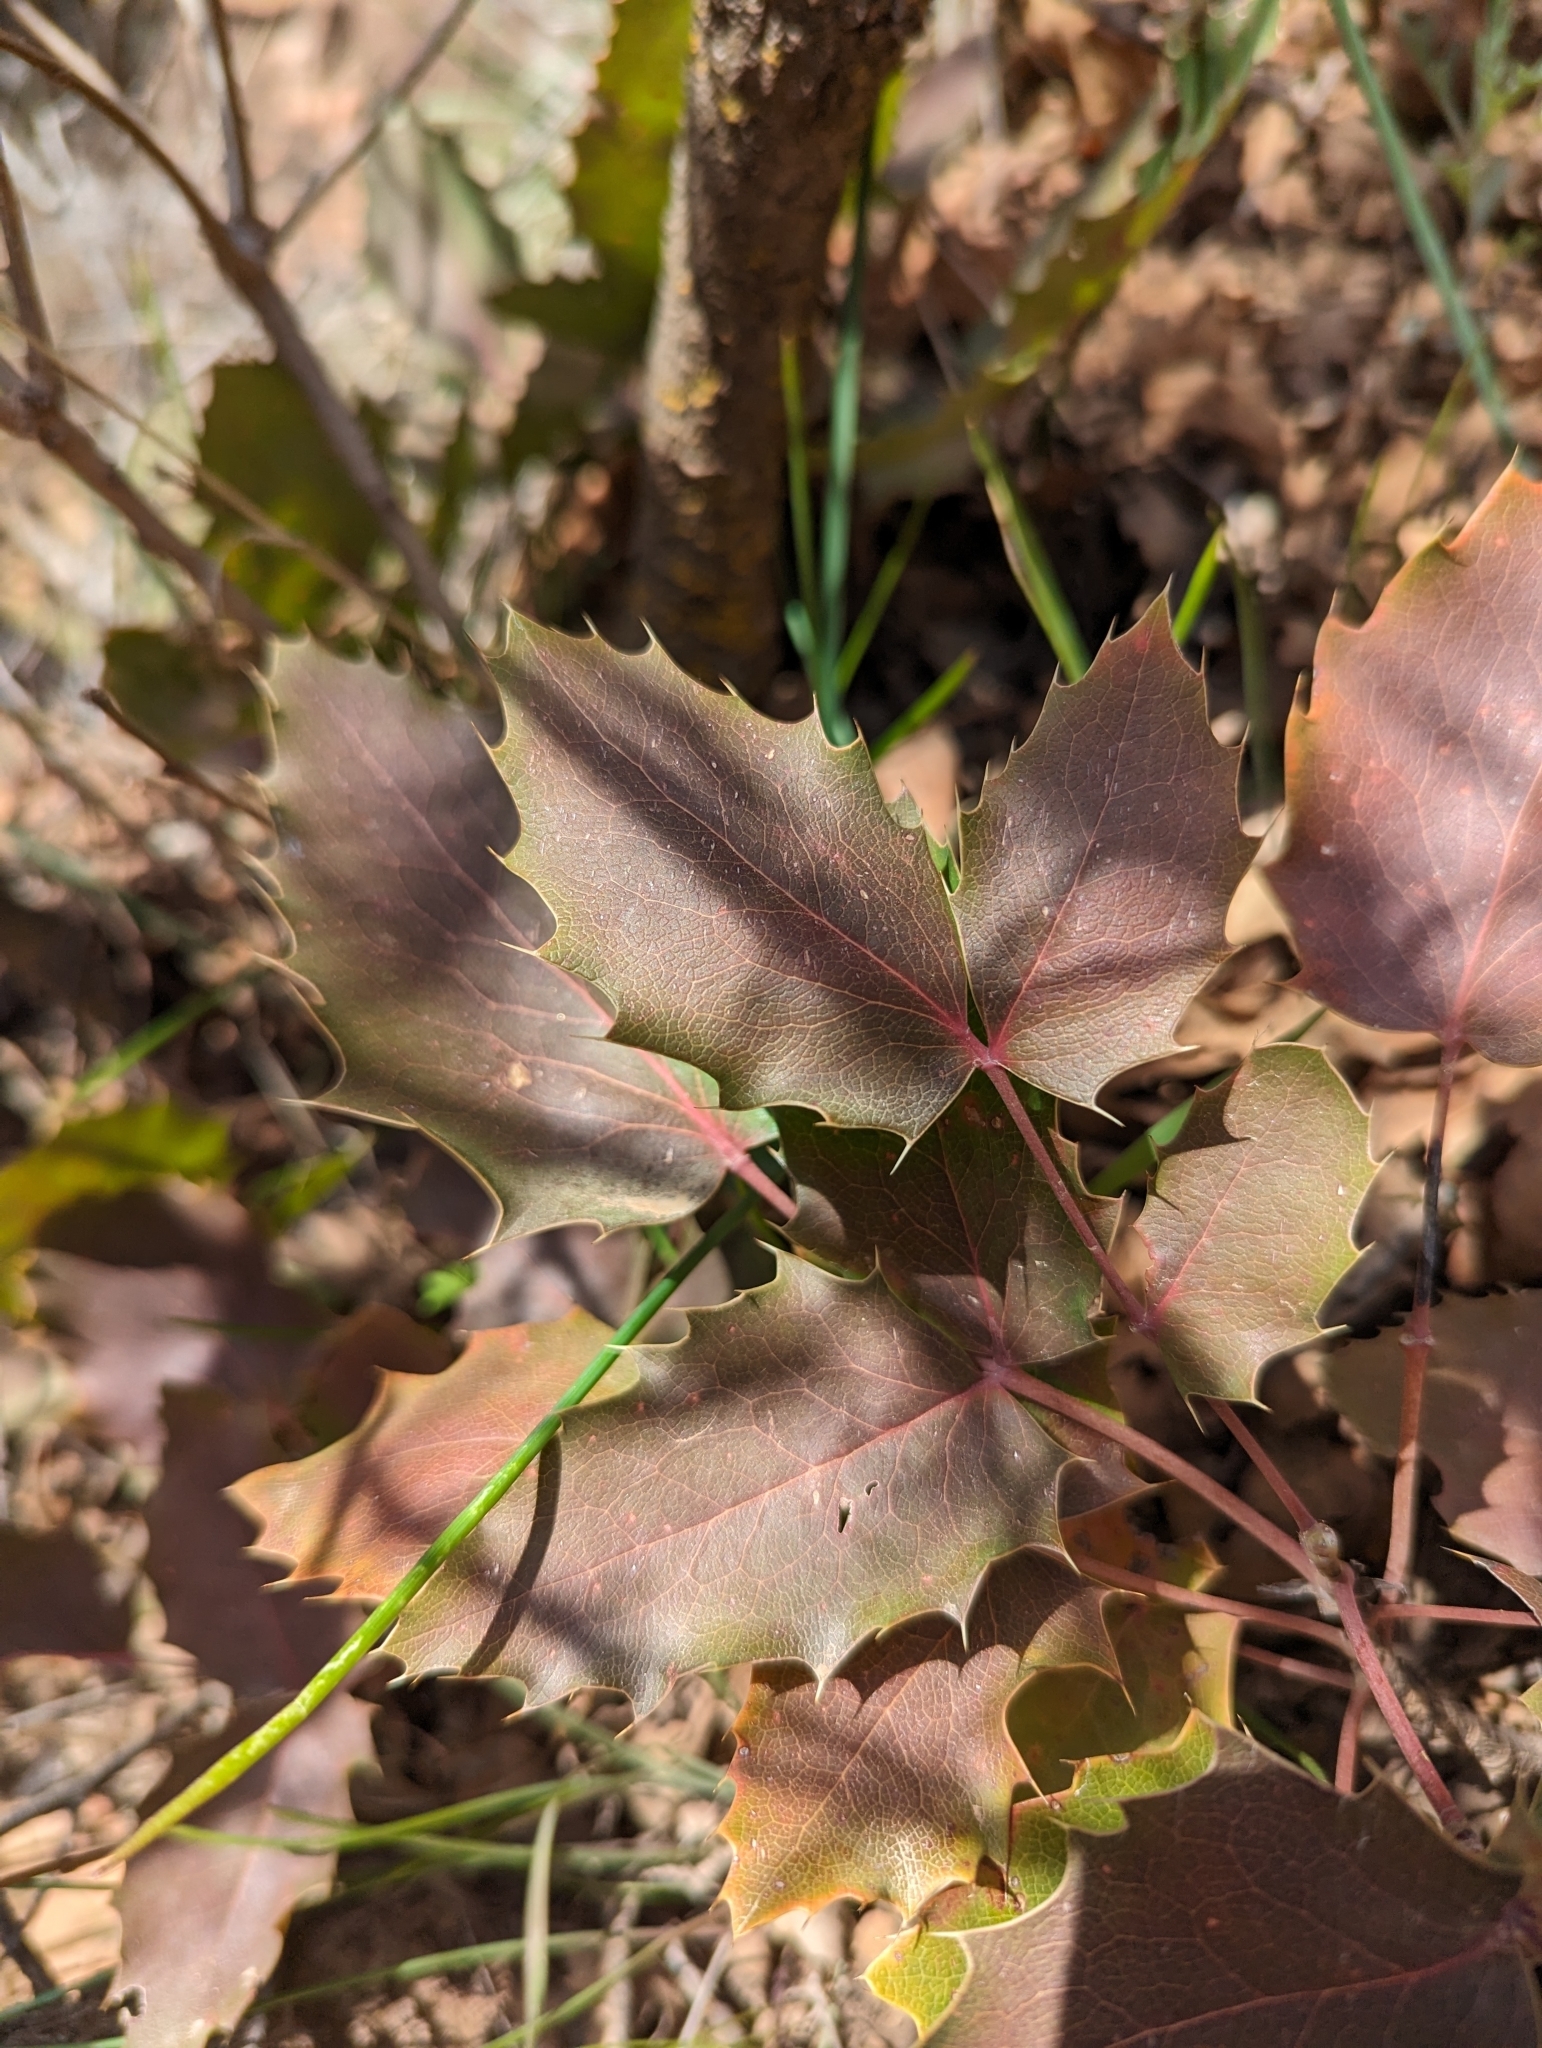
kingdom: Plantae
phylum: Tracheophyta
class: Magnoliopsida
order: Ranunculales
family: Berberidaceae
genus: Mahonia
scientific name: Mahonia repens
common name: Creeping oregon-grape
